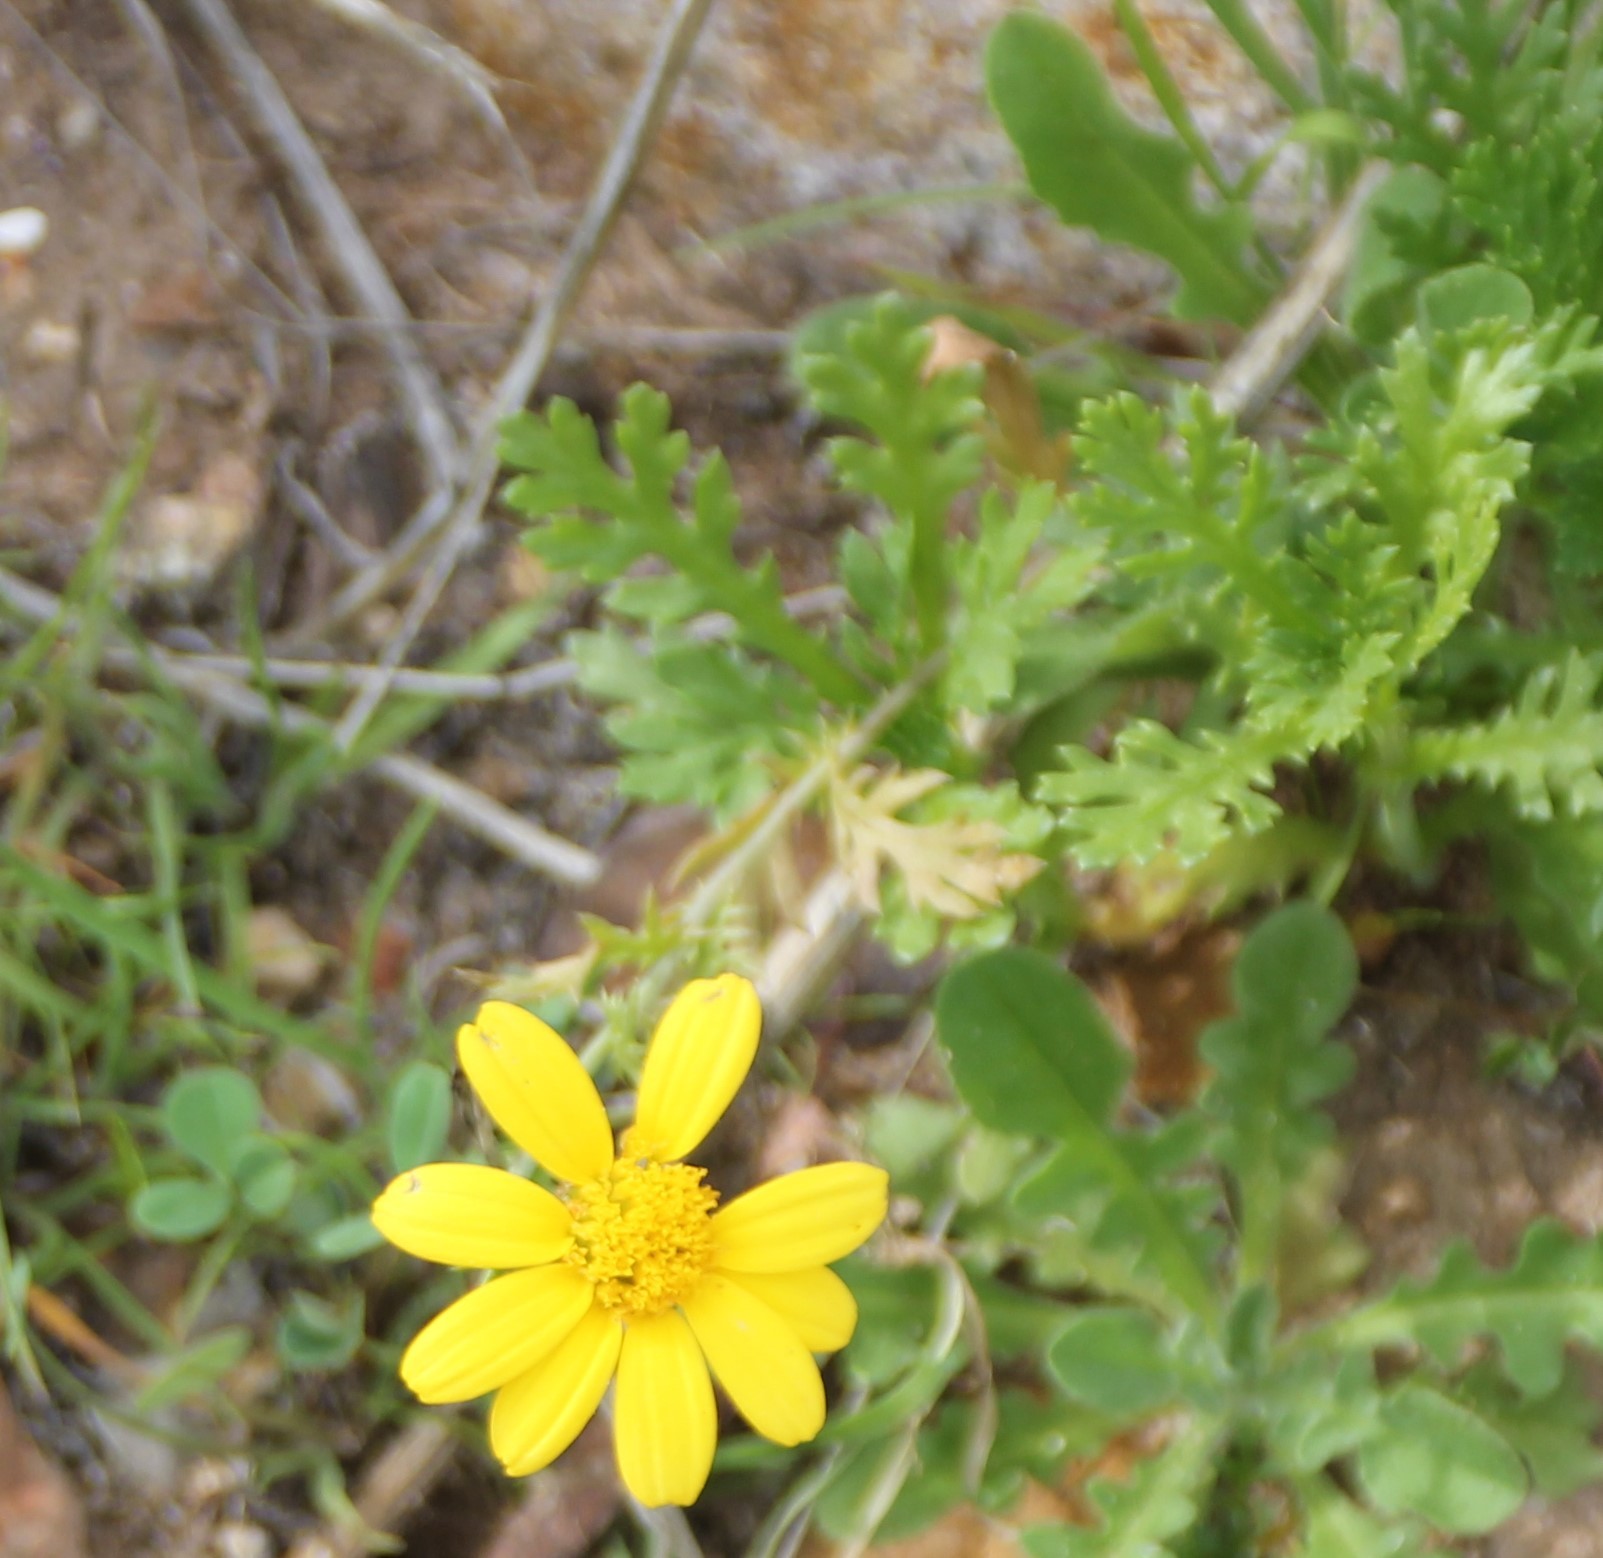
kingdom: Plantae
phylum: Tracheophyta
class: Magnoliopsida
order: Asterales
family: Asteraceae
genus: Glebionis
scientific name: Glebionis coronaria
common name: Crowndaisy
